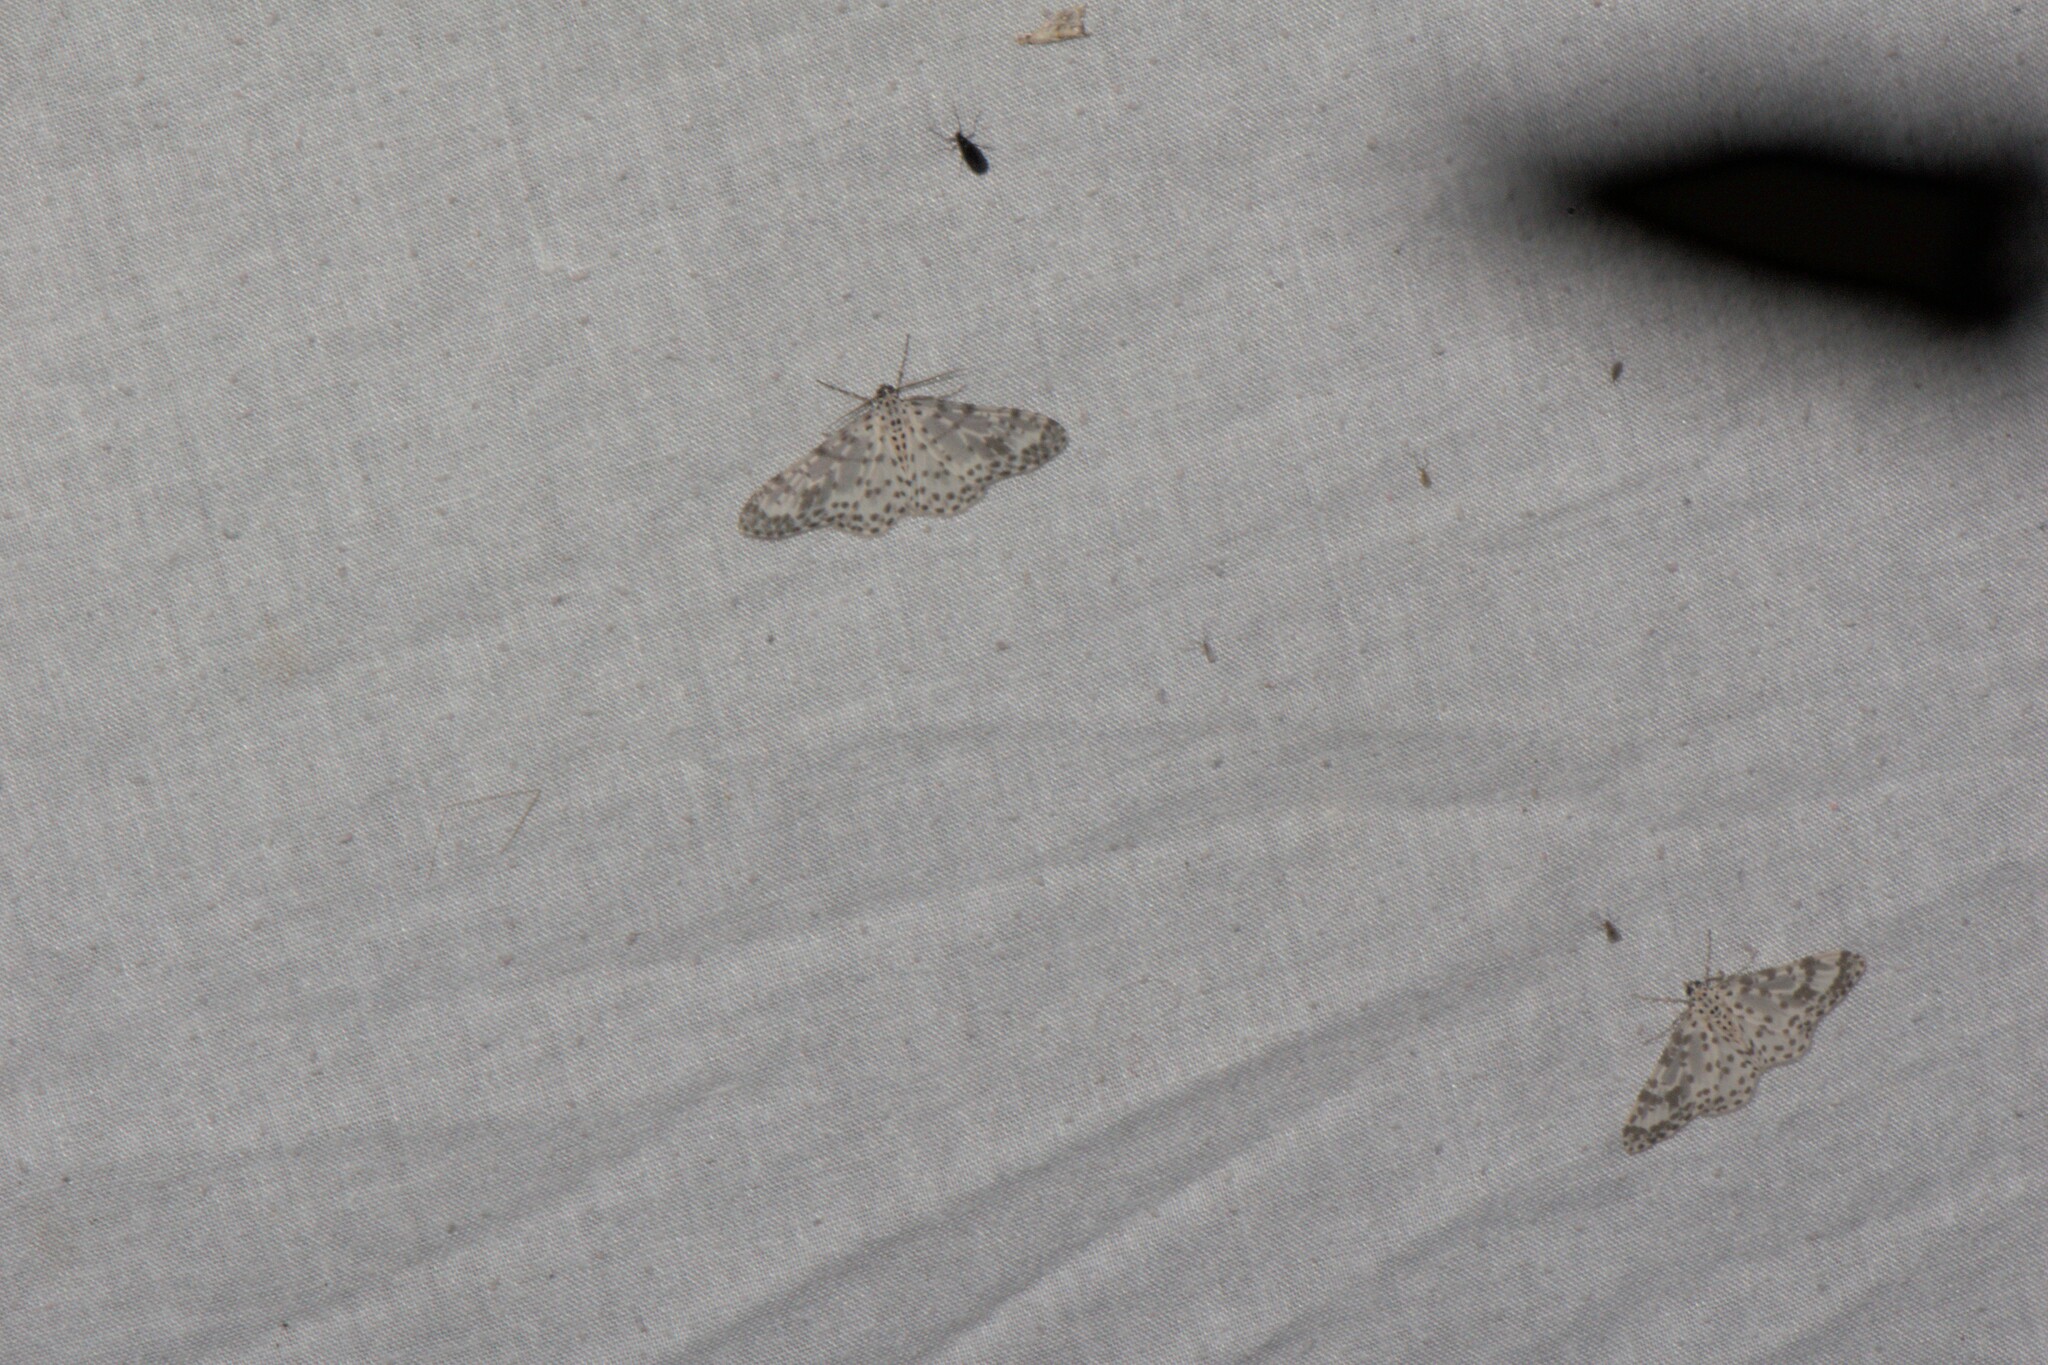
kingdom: Animalia
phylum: Arthropoda
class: Insecta
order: Lepidoptera
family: Geometridae
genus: Xenoplia
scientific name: Xenoplia maculata
